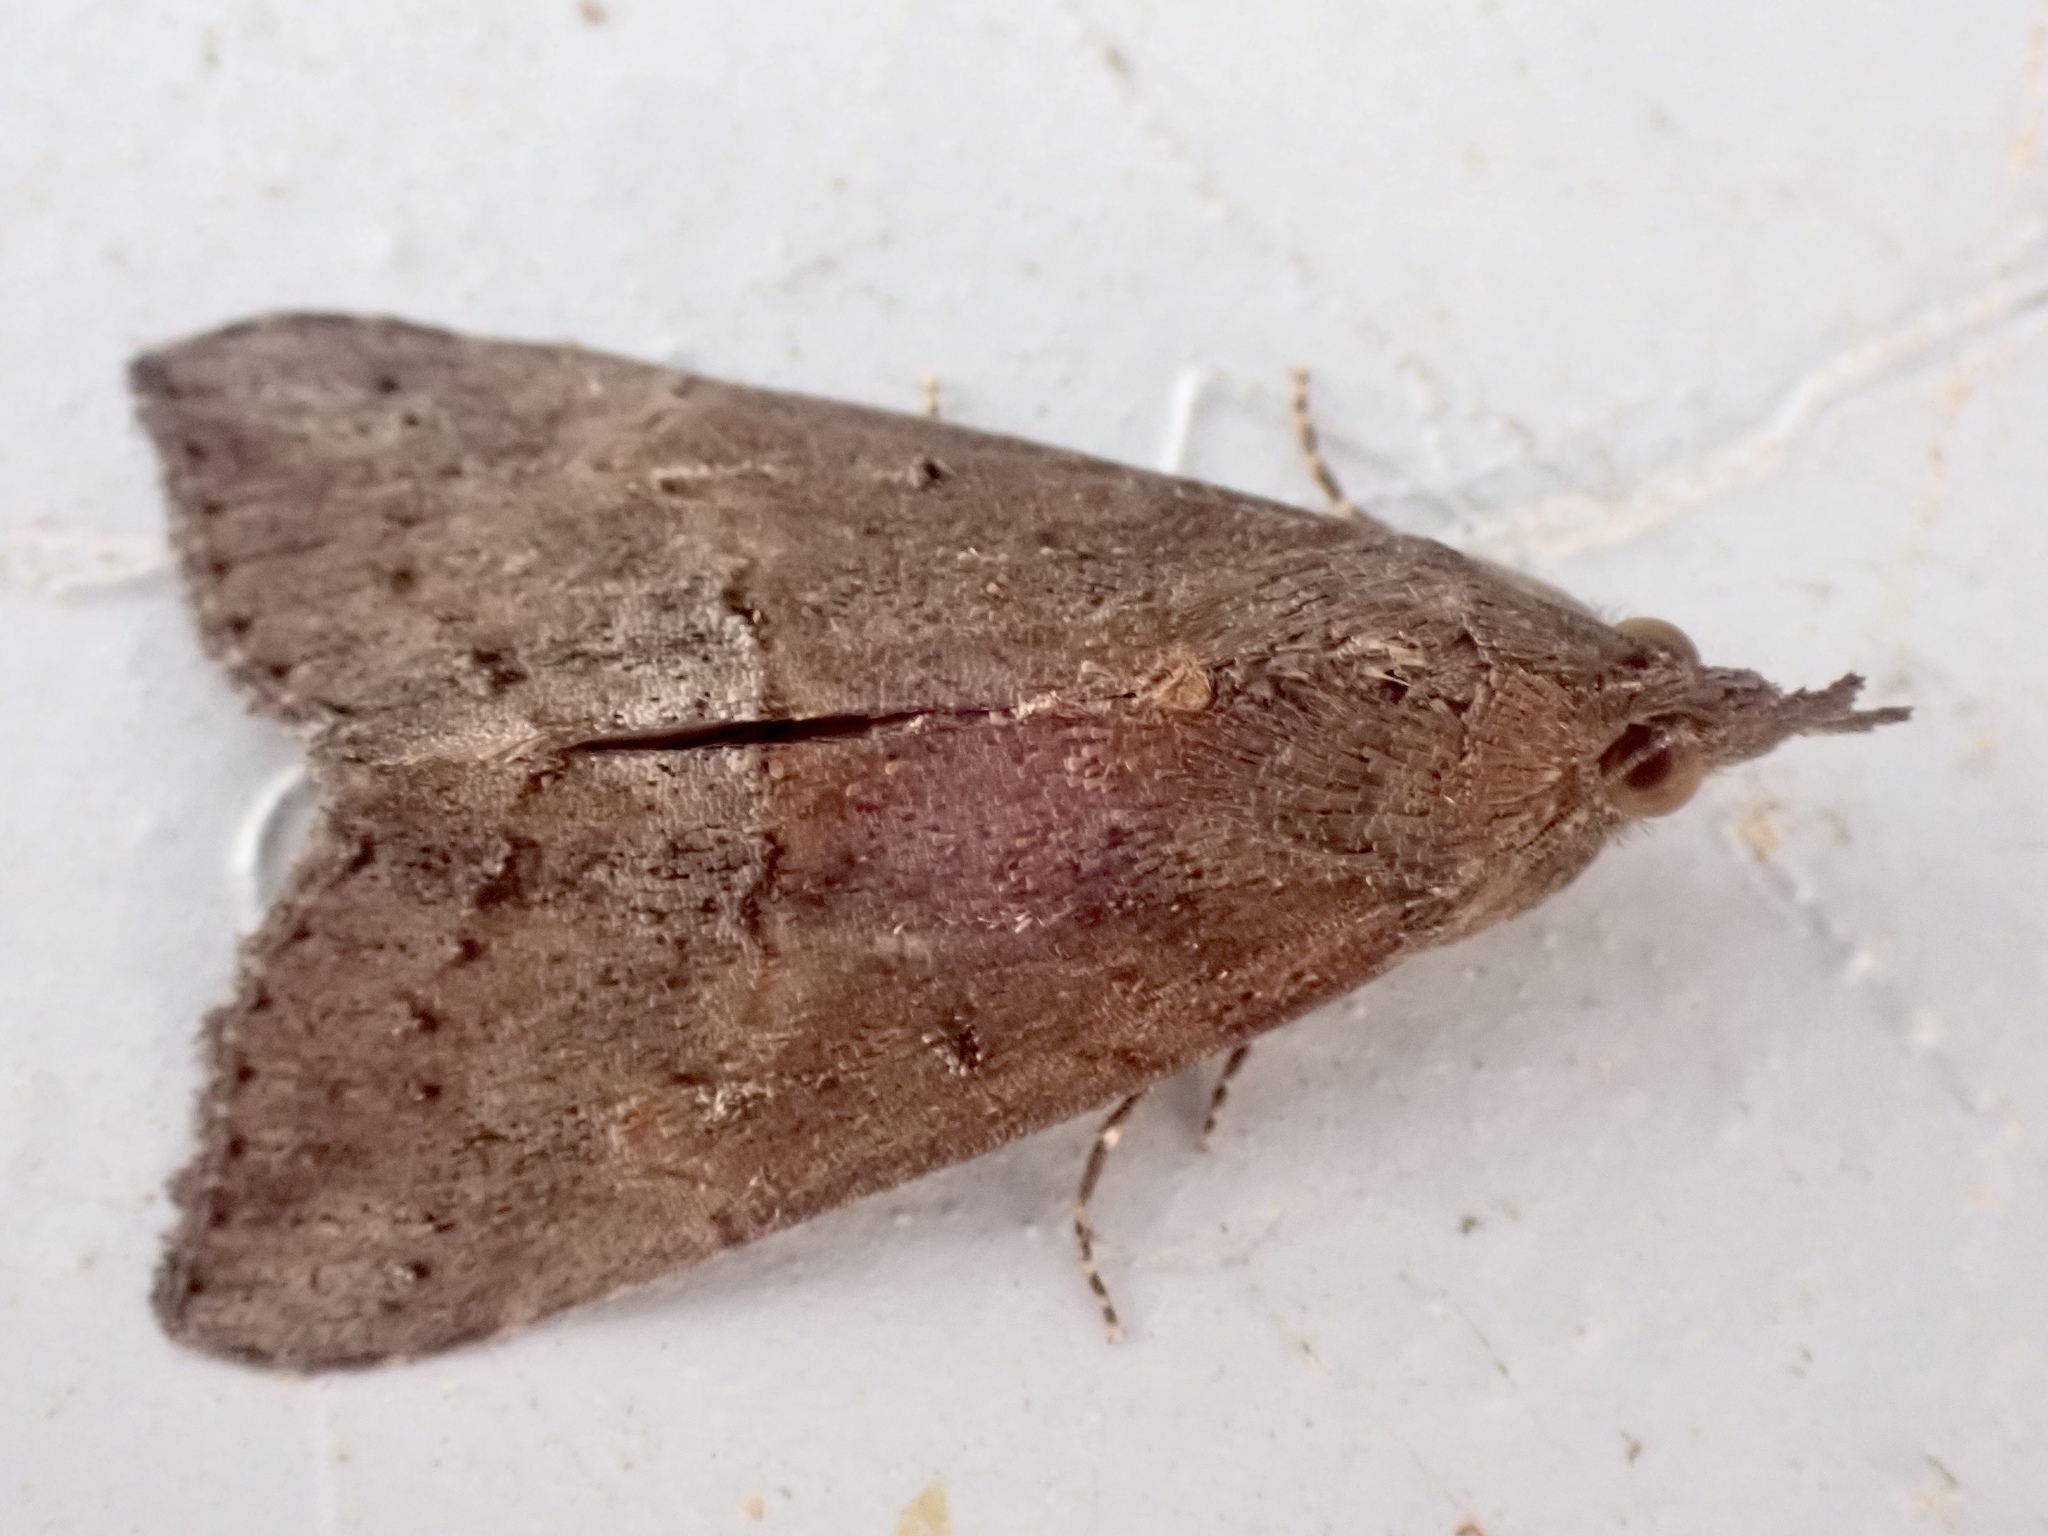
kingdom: Animalia
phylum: Arthropoda
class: Insecta
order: Lepidoptera
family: Erebidae
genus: Hypena
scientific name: Hypena scabra
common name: Green cloverworm
